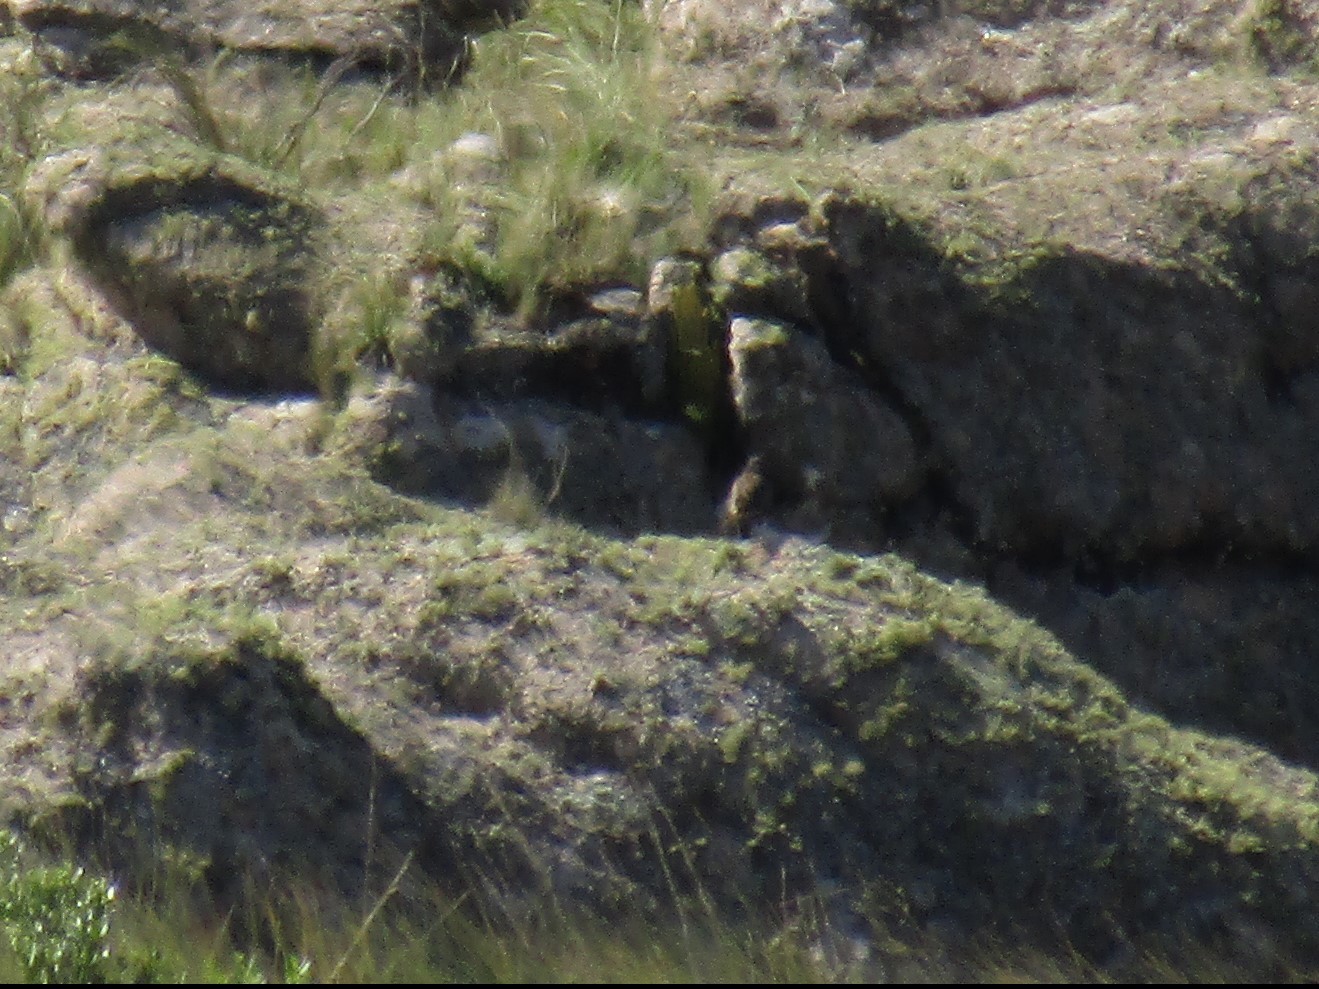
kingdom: Animalia
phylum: Chordata
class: Aves
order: Passeriformes
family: Icteridae
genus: Sturnella
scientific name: Sturnella loyca
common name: Long-tailed meadowlark
